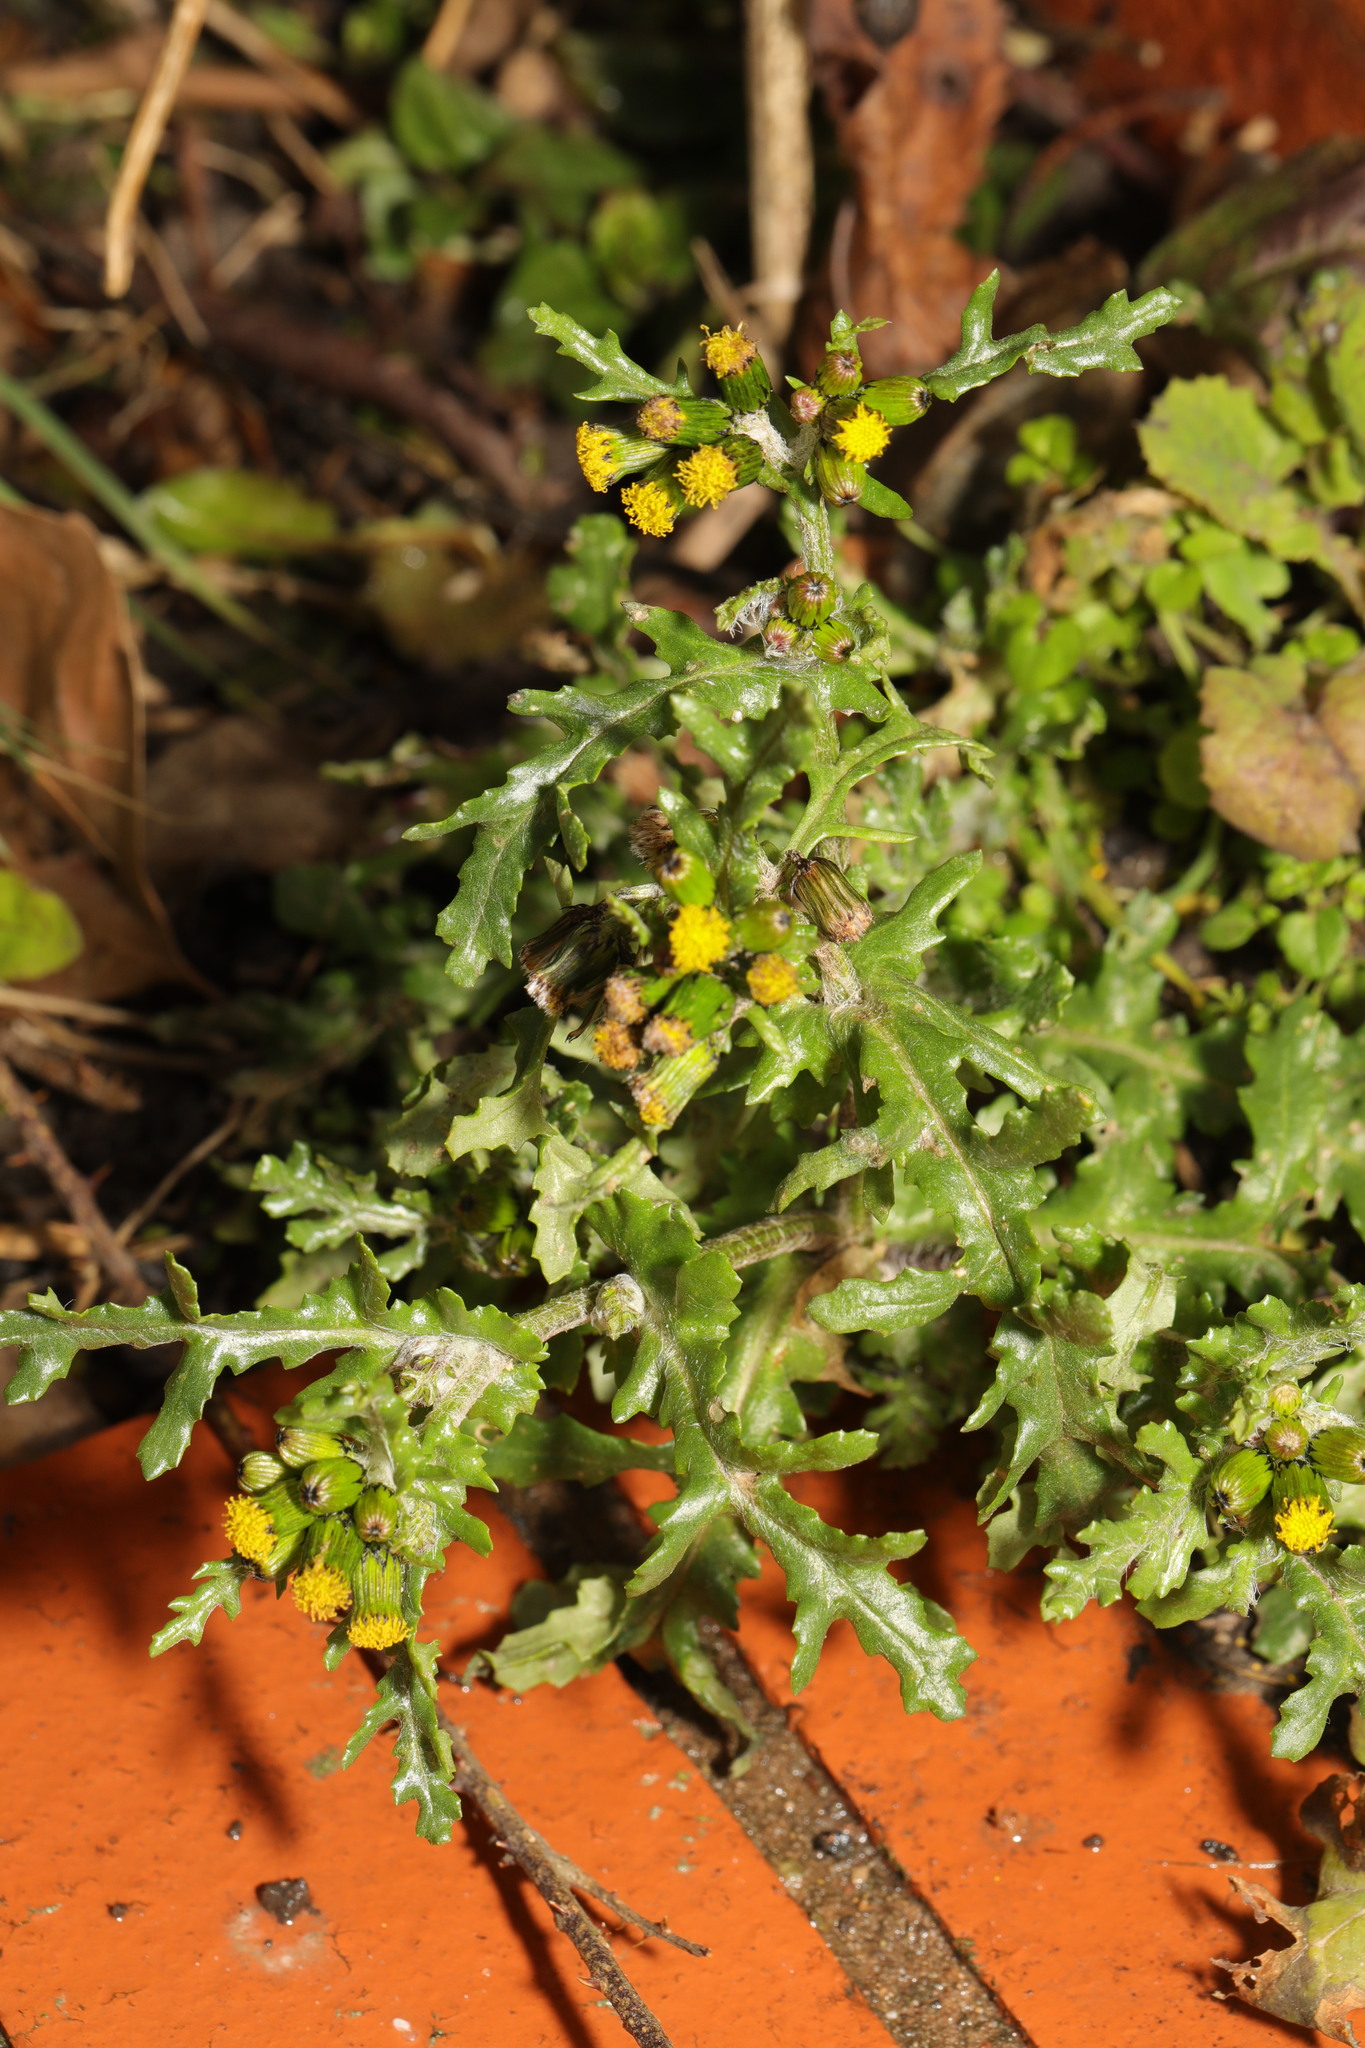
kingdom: Plantae
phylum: Tracheophyta
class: Magnoliopsida
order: Asterales
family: Asteraceae
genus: Senecio
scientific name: Senecio vulgaris
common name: Old-man-in-the-spring
